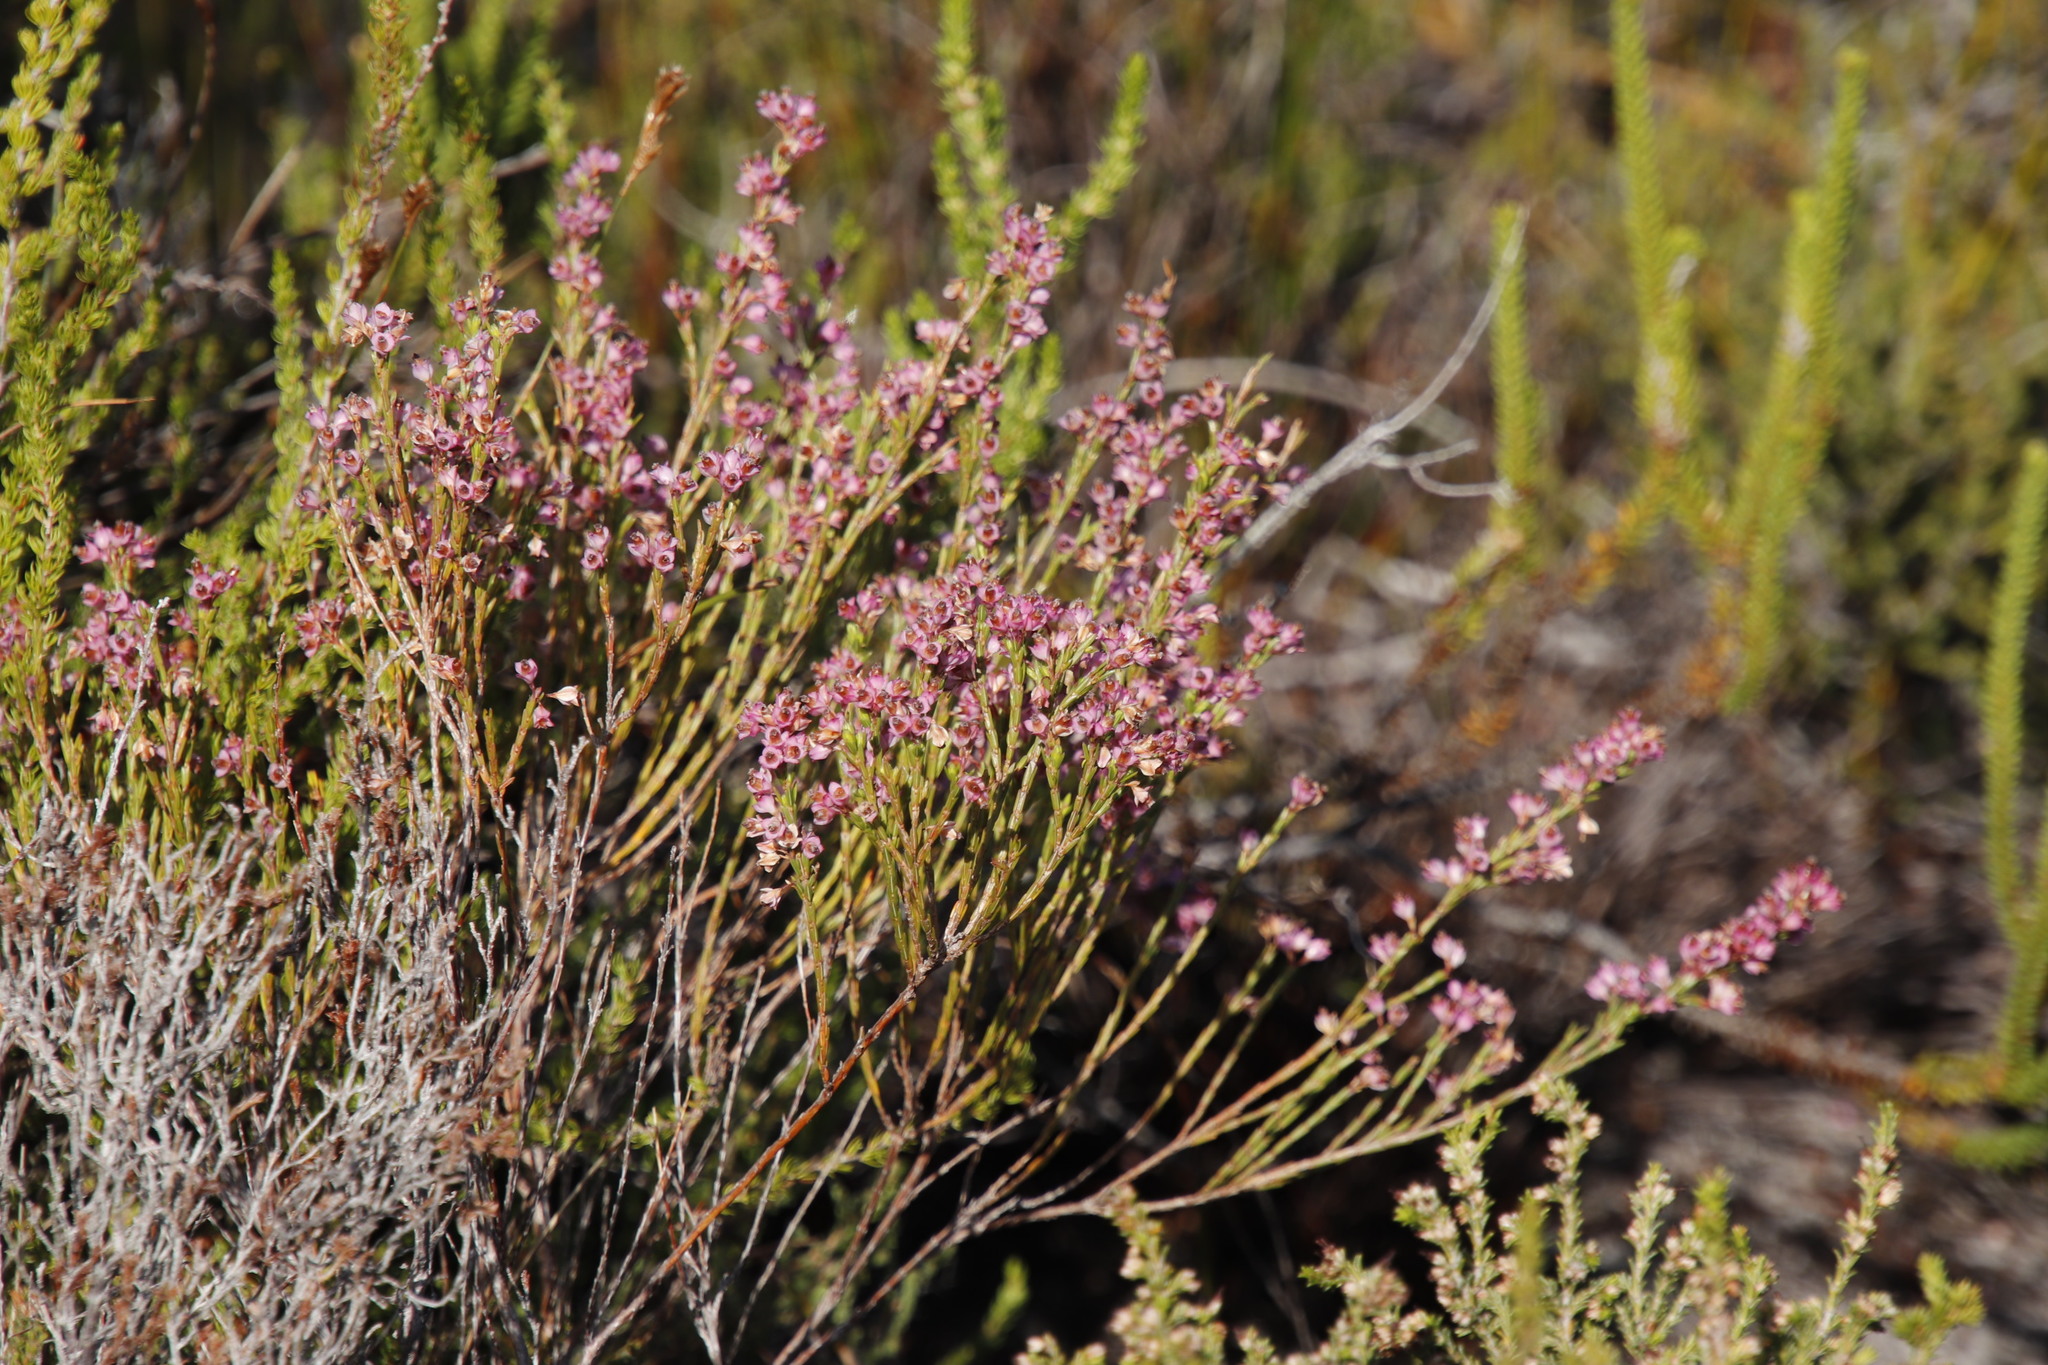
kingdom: Plantae
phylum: Tracheophyta
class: Magnoliopsida
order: Ericales
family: Ericaceae
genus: Erica
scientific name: Erica corifolia
